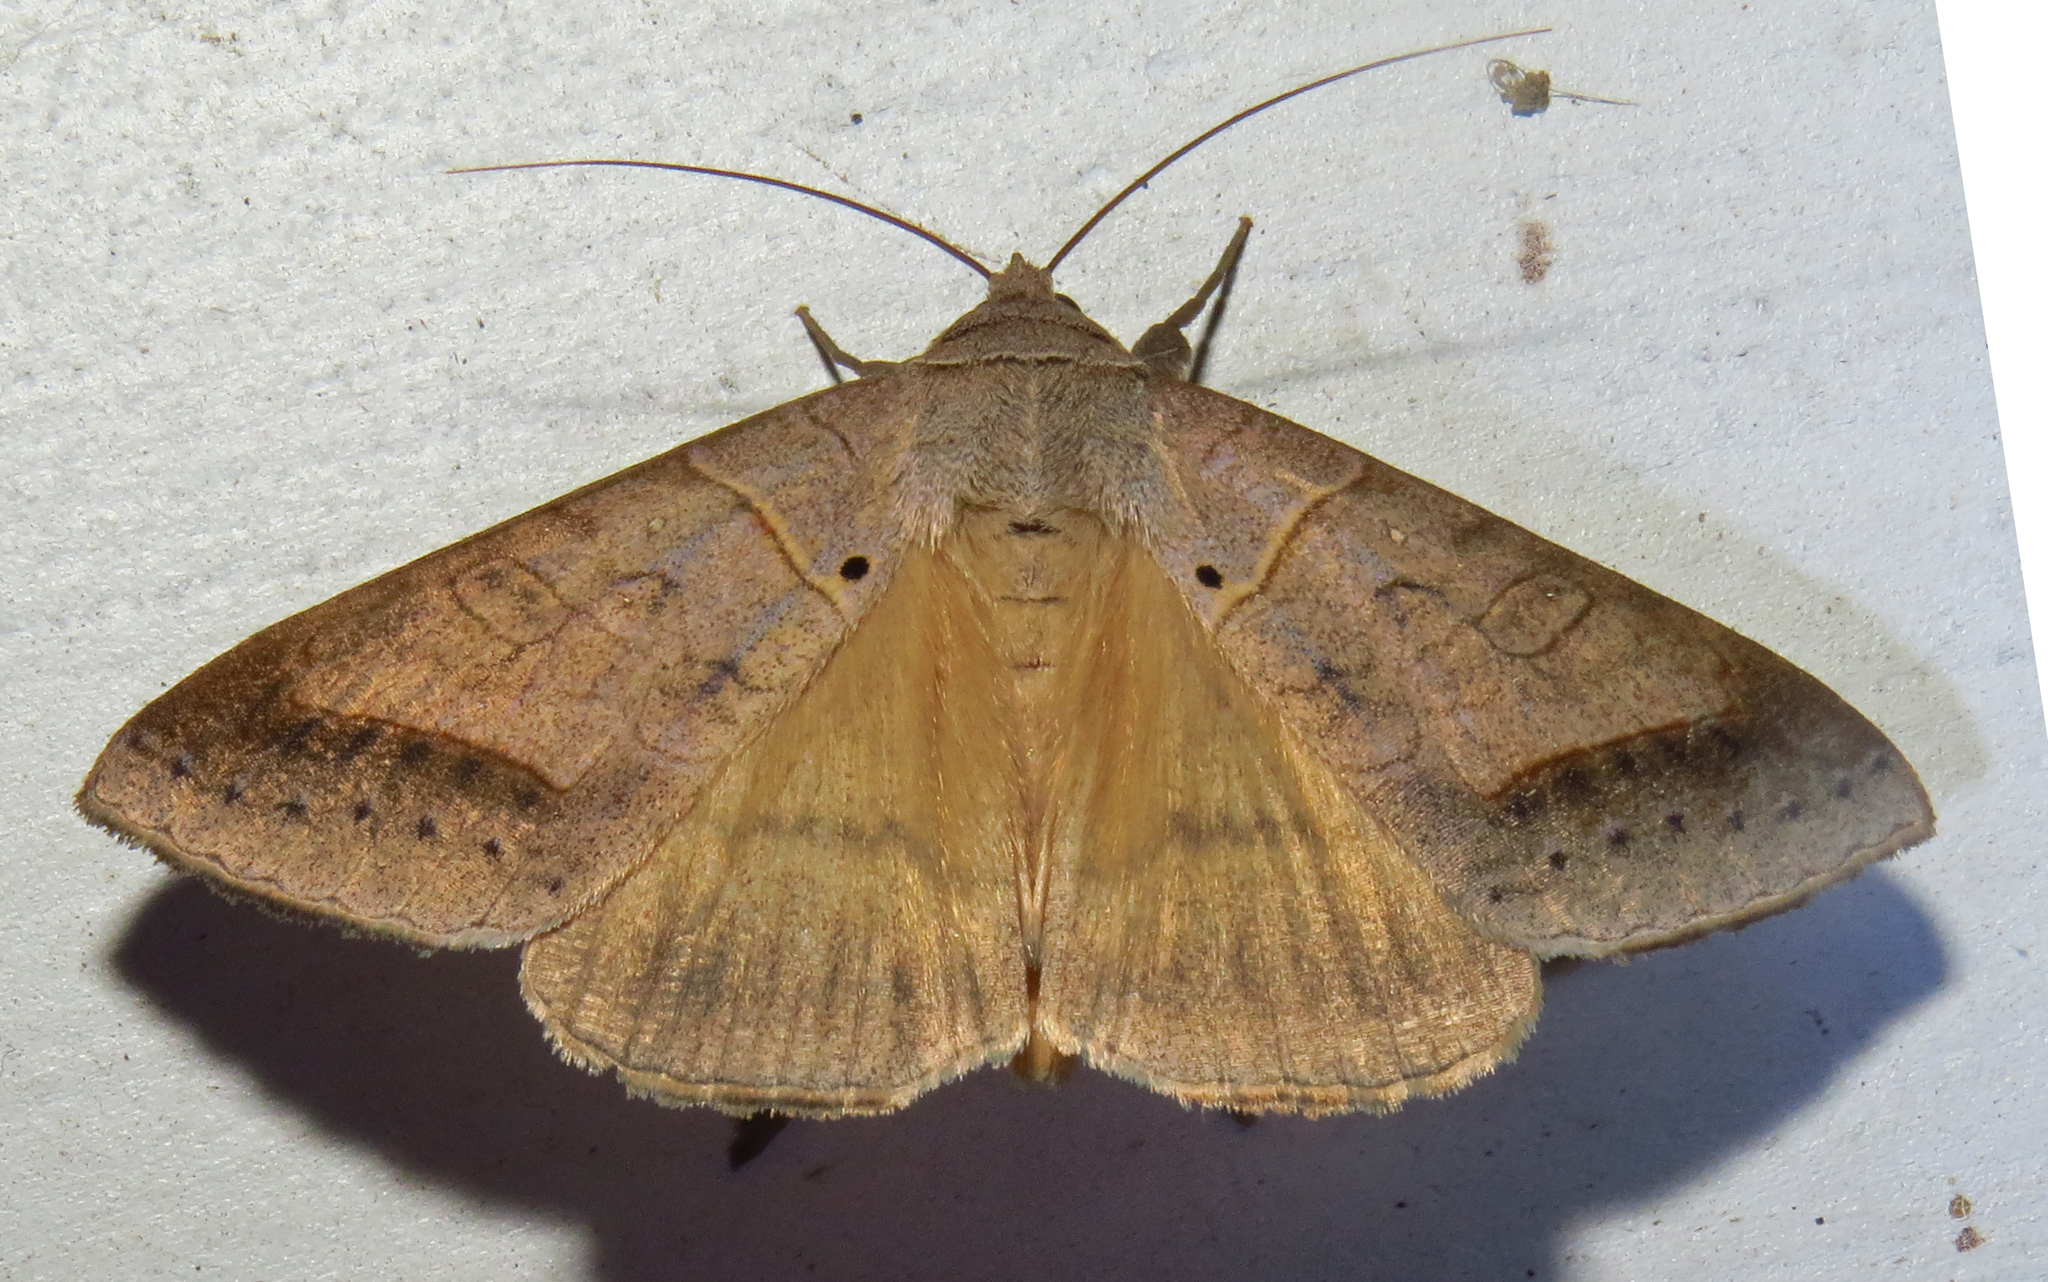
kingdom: Animalia
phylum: Arthropoda
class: Insecta
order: Lepidoptera
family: Erebidae
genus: Mocis
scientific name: Mocis marcida
